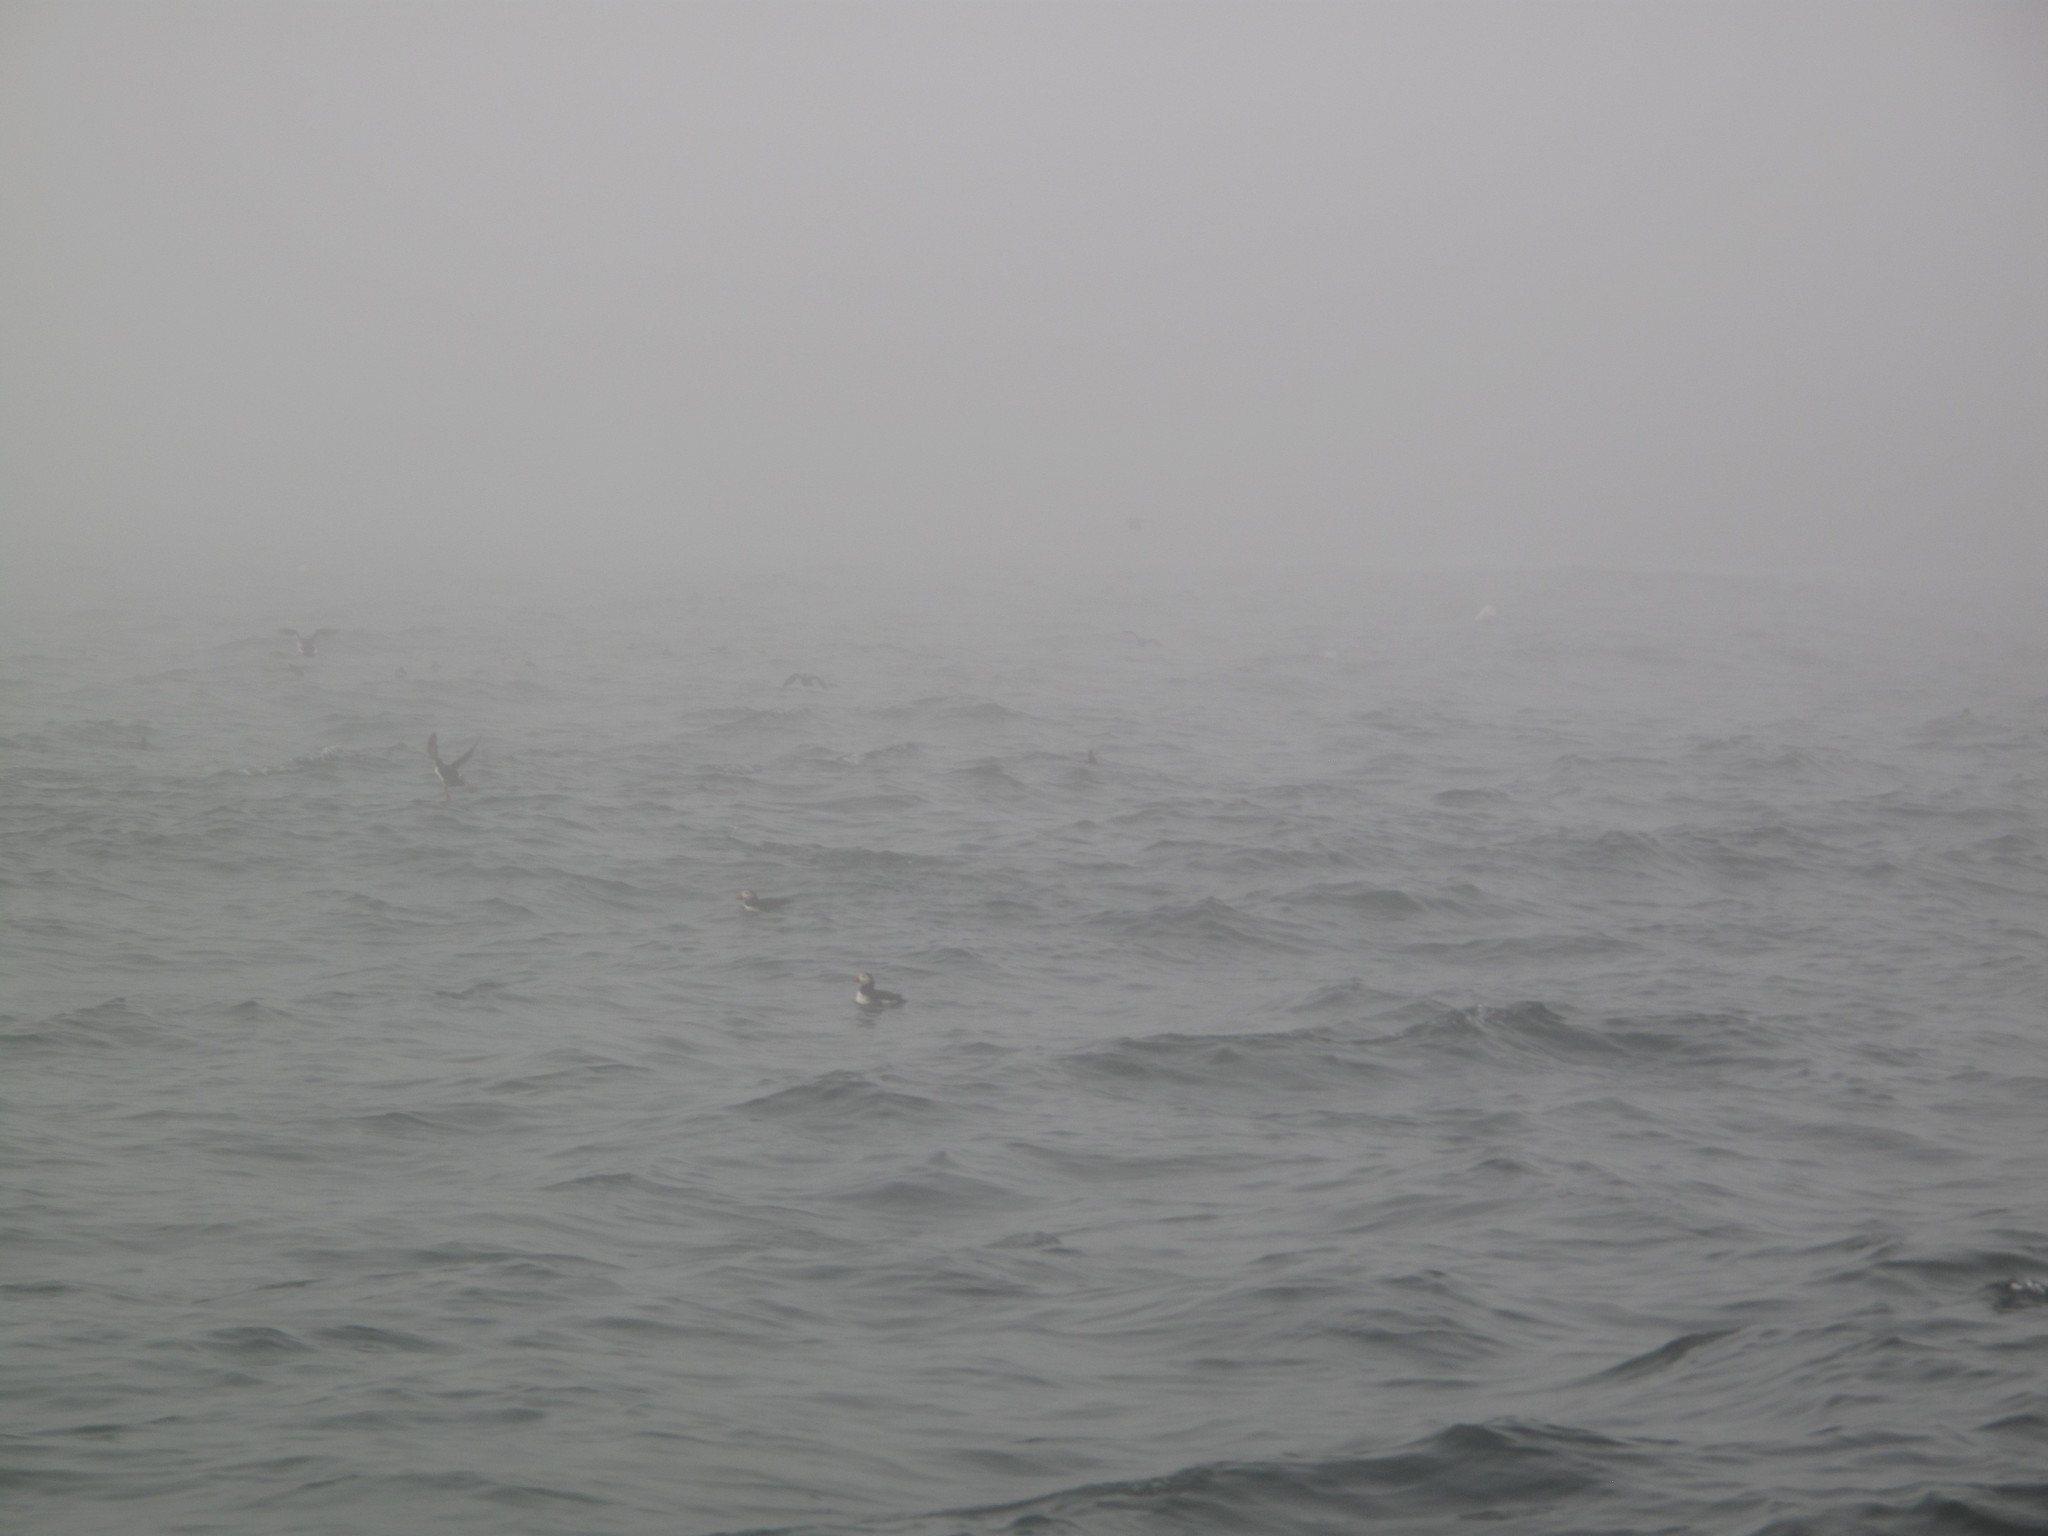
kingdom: Animalia
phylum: Chordata
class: Aves
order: Charadriiformes
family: Alcidae
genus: Fratercula
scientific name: Fratercula arctica
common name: Atlantic puffin
